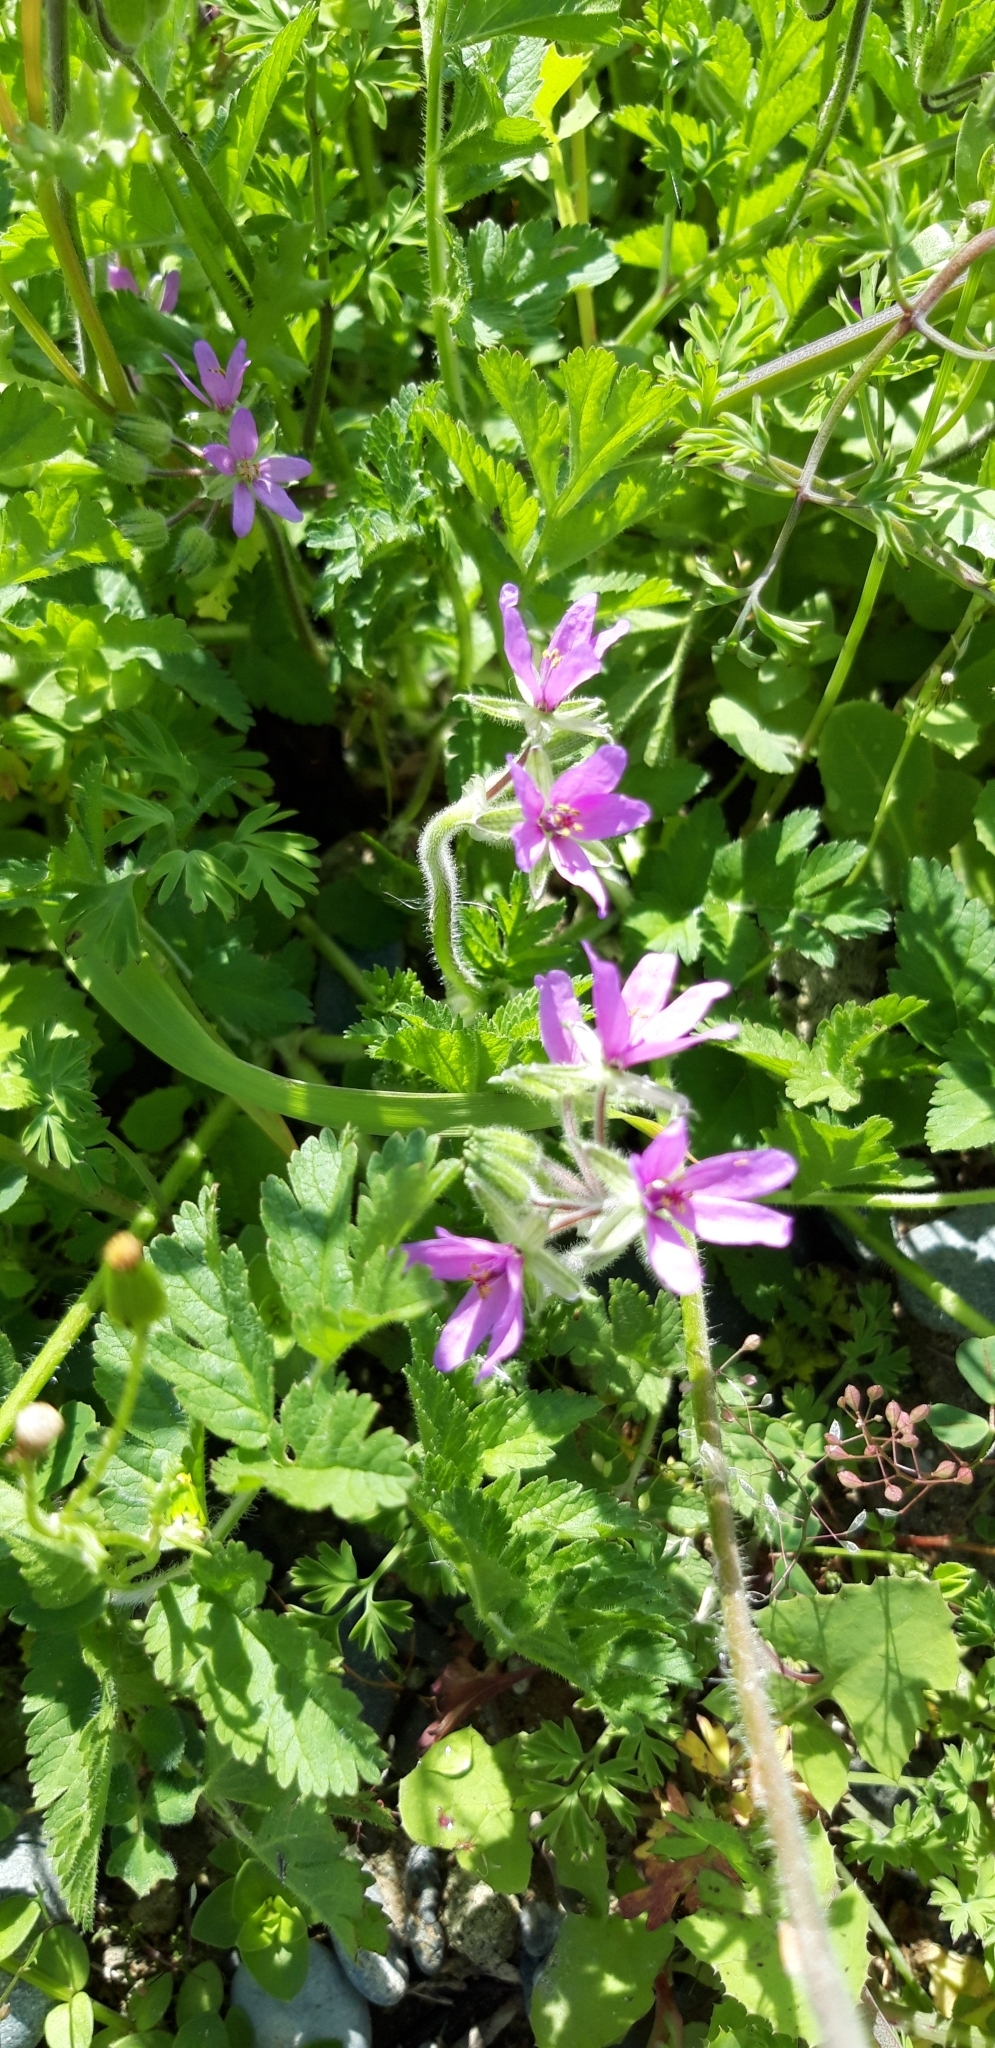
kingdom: Plantae
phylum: Tracheophyta
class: Magnoliopsida
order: Geraniales
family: Geraniaceae
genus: Erodium
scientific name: Erodium moschatum
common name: Musk stork's-bill
